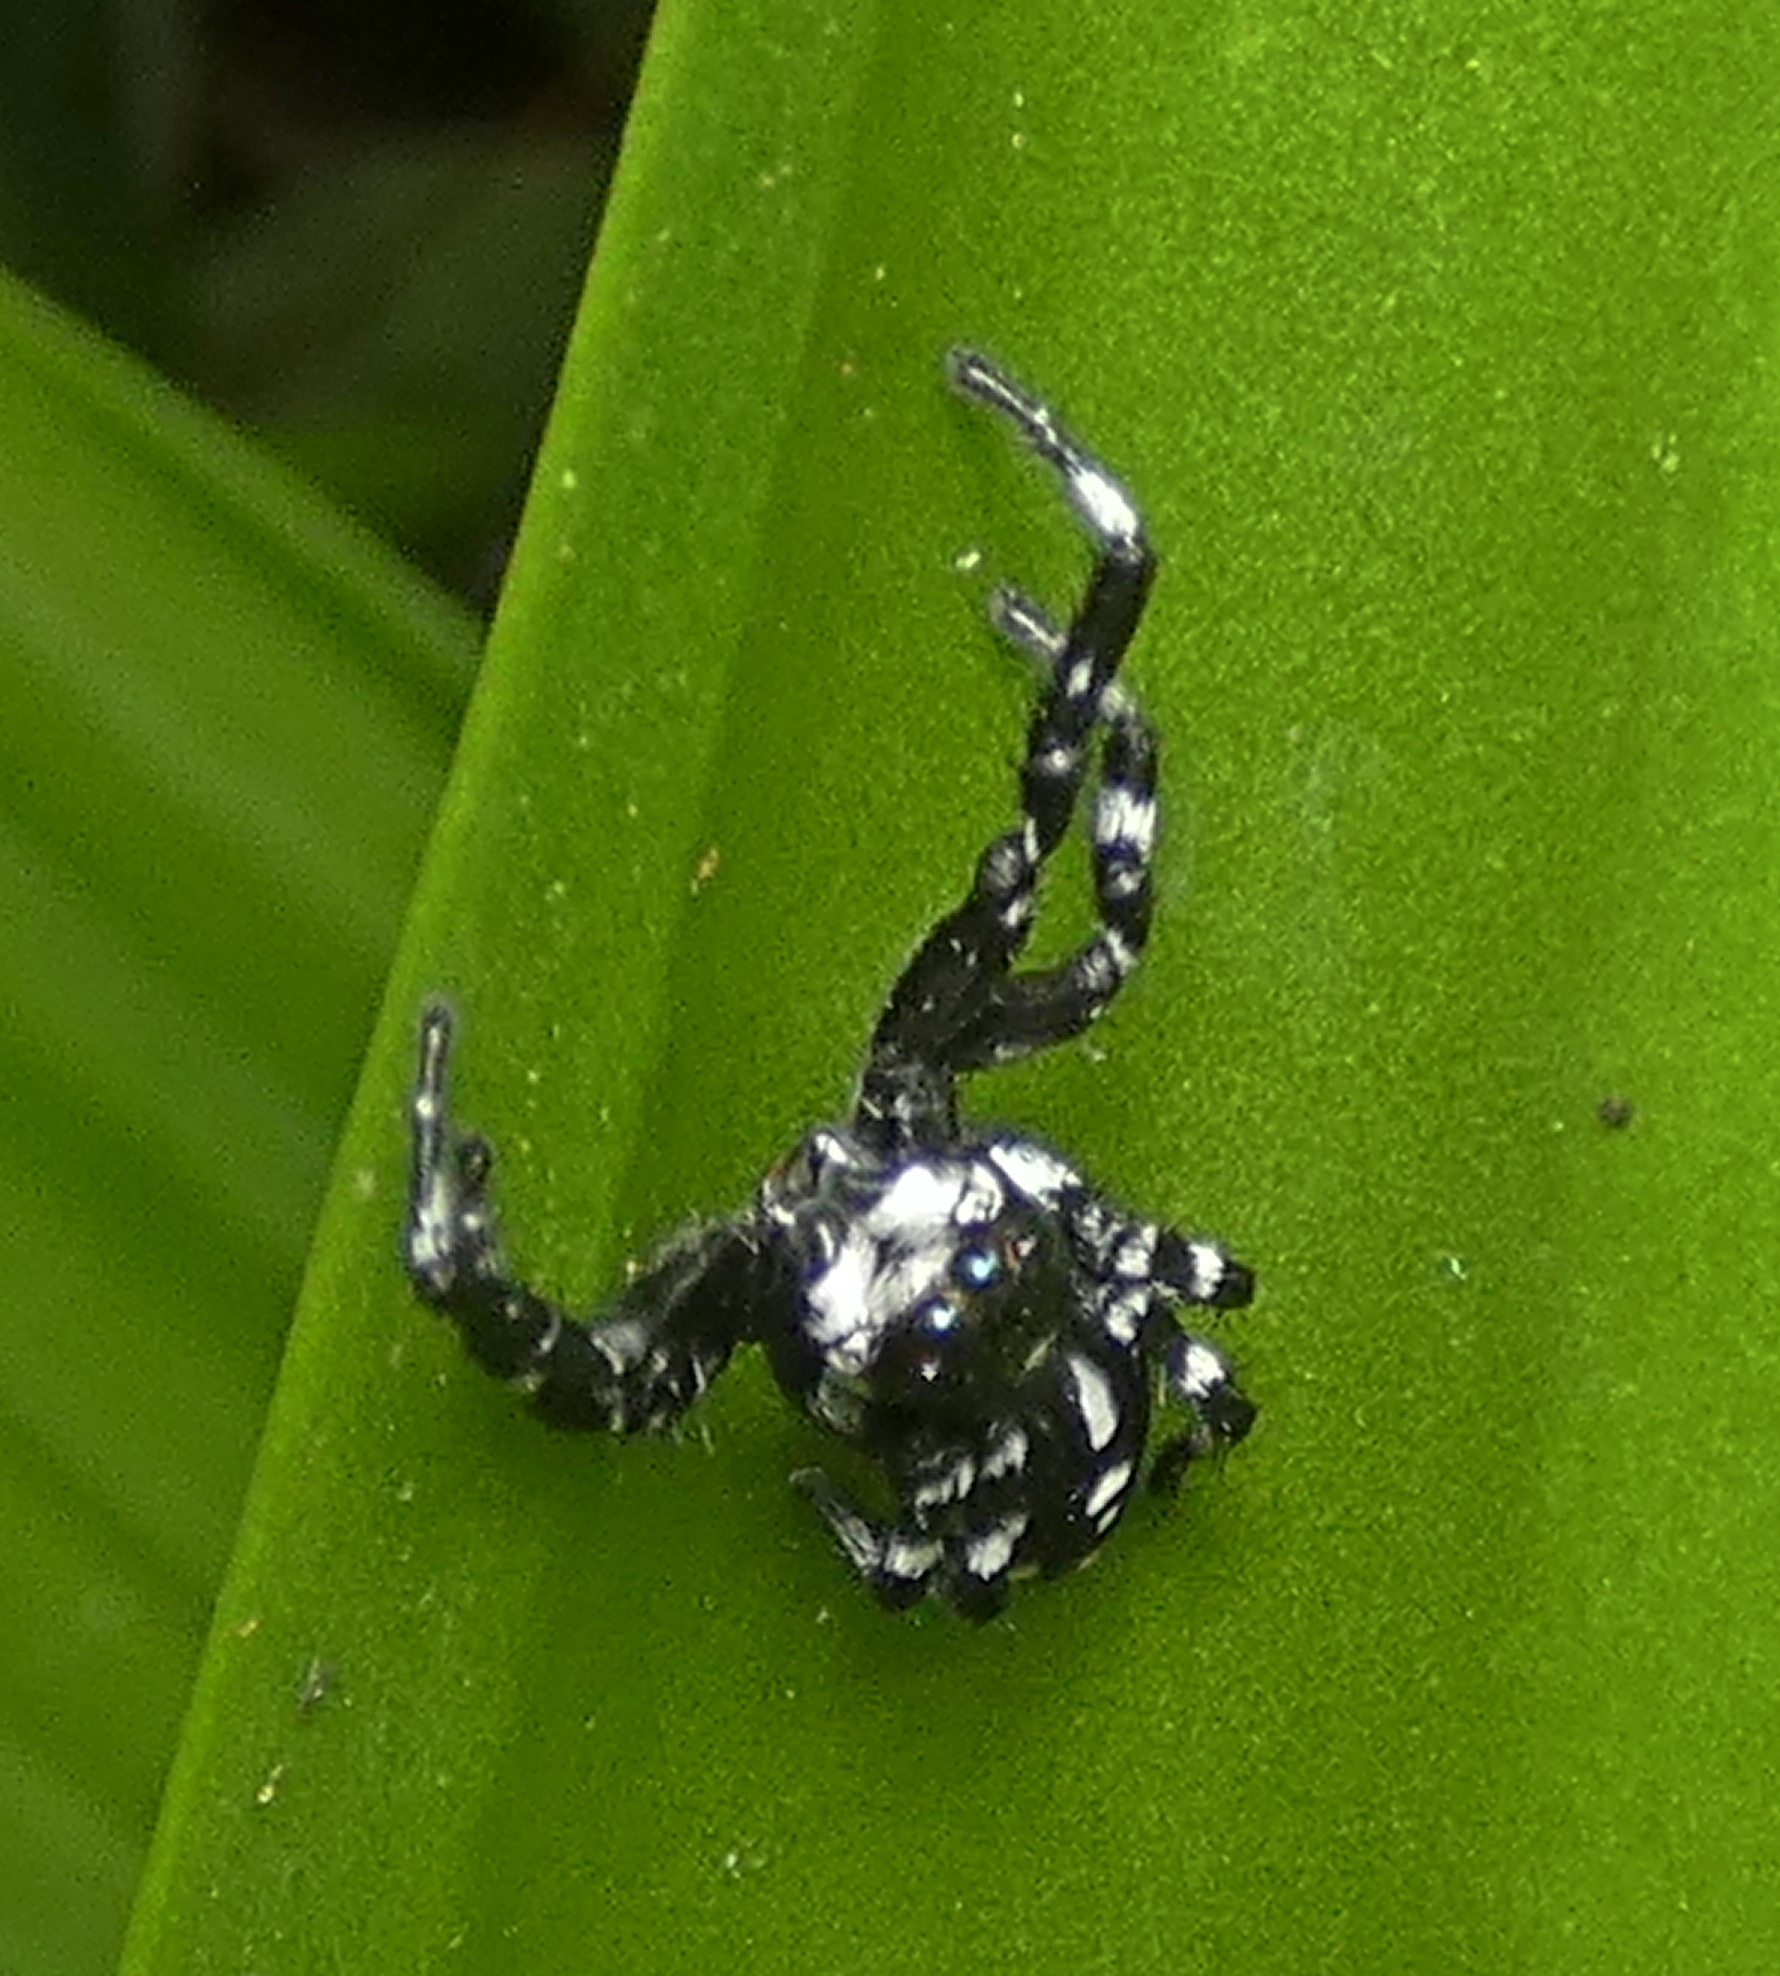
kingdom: Animalia
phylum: Arthropoda
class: Arachnida
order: Araneae
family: Salticidae
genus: Phiale
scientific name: Phiale guttata
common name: Jumping spiders
